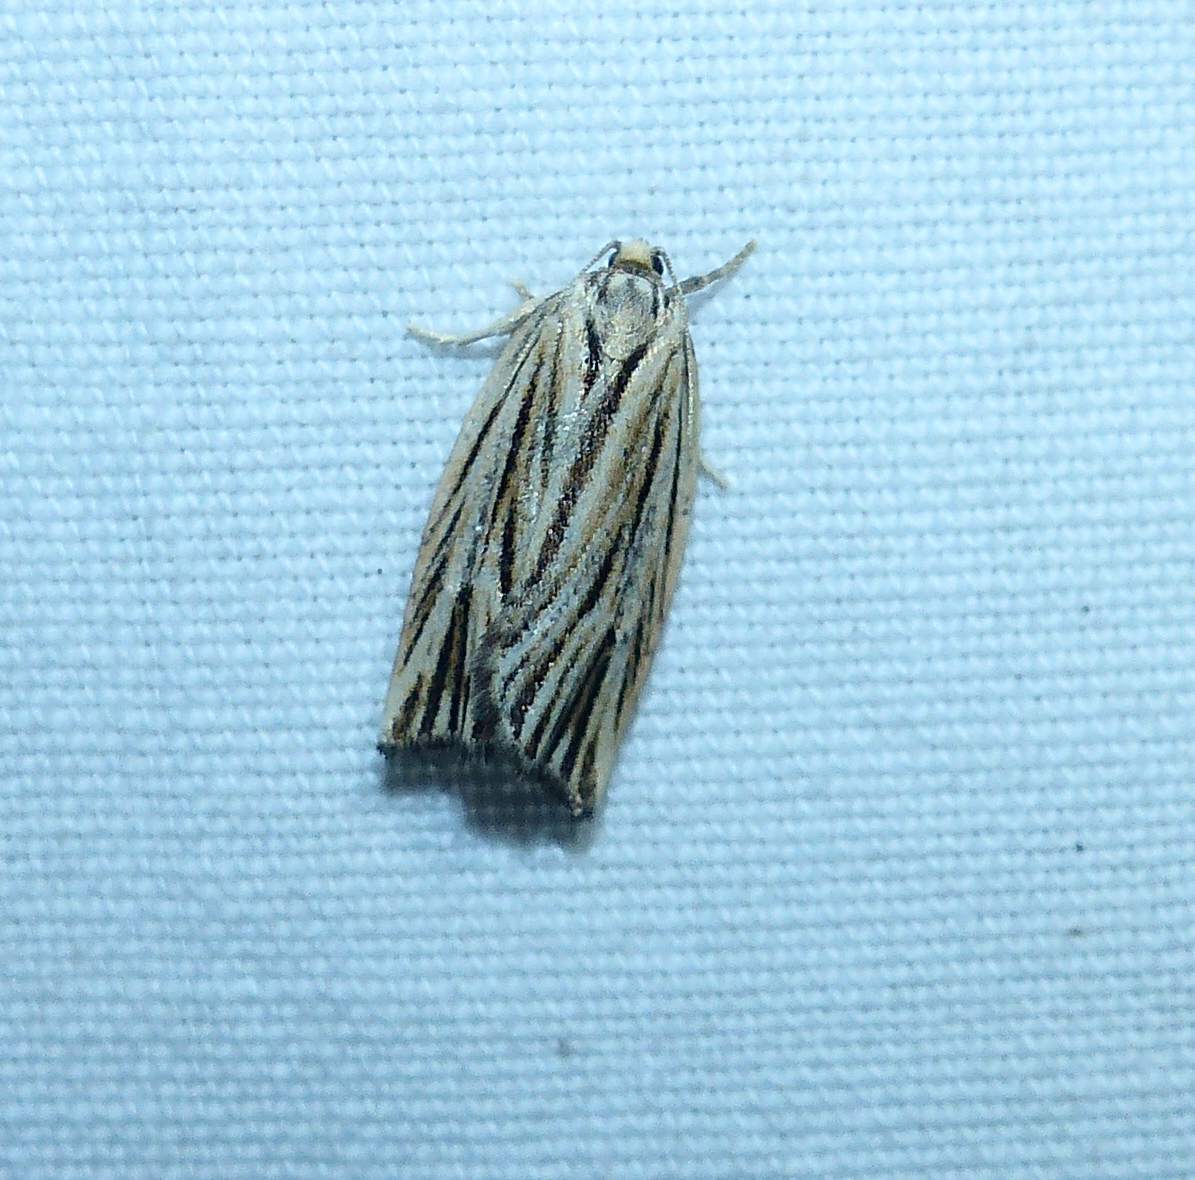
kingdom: Animalia
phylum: Arthropoda
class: Insecta
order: Lepidoptera
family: Tortricidae
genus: Archips
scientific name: Archips strianus
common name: Striated tortrix moth
